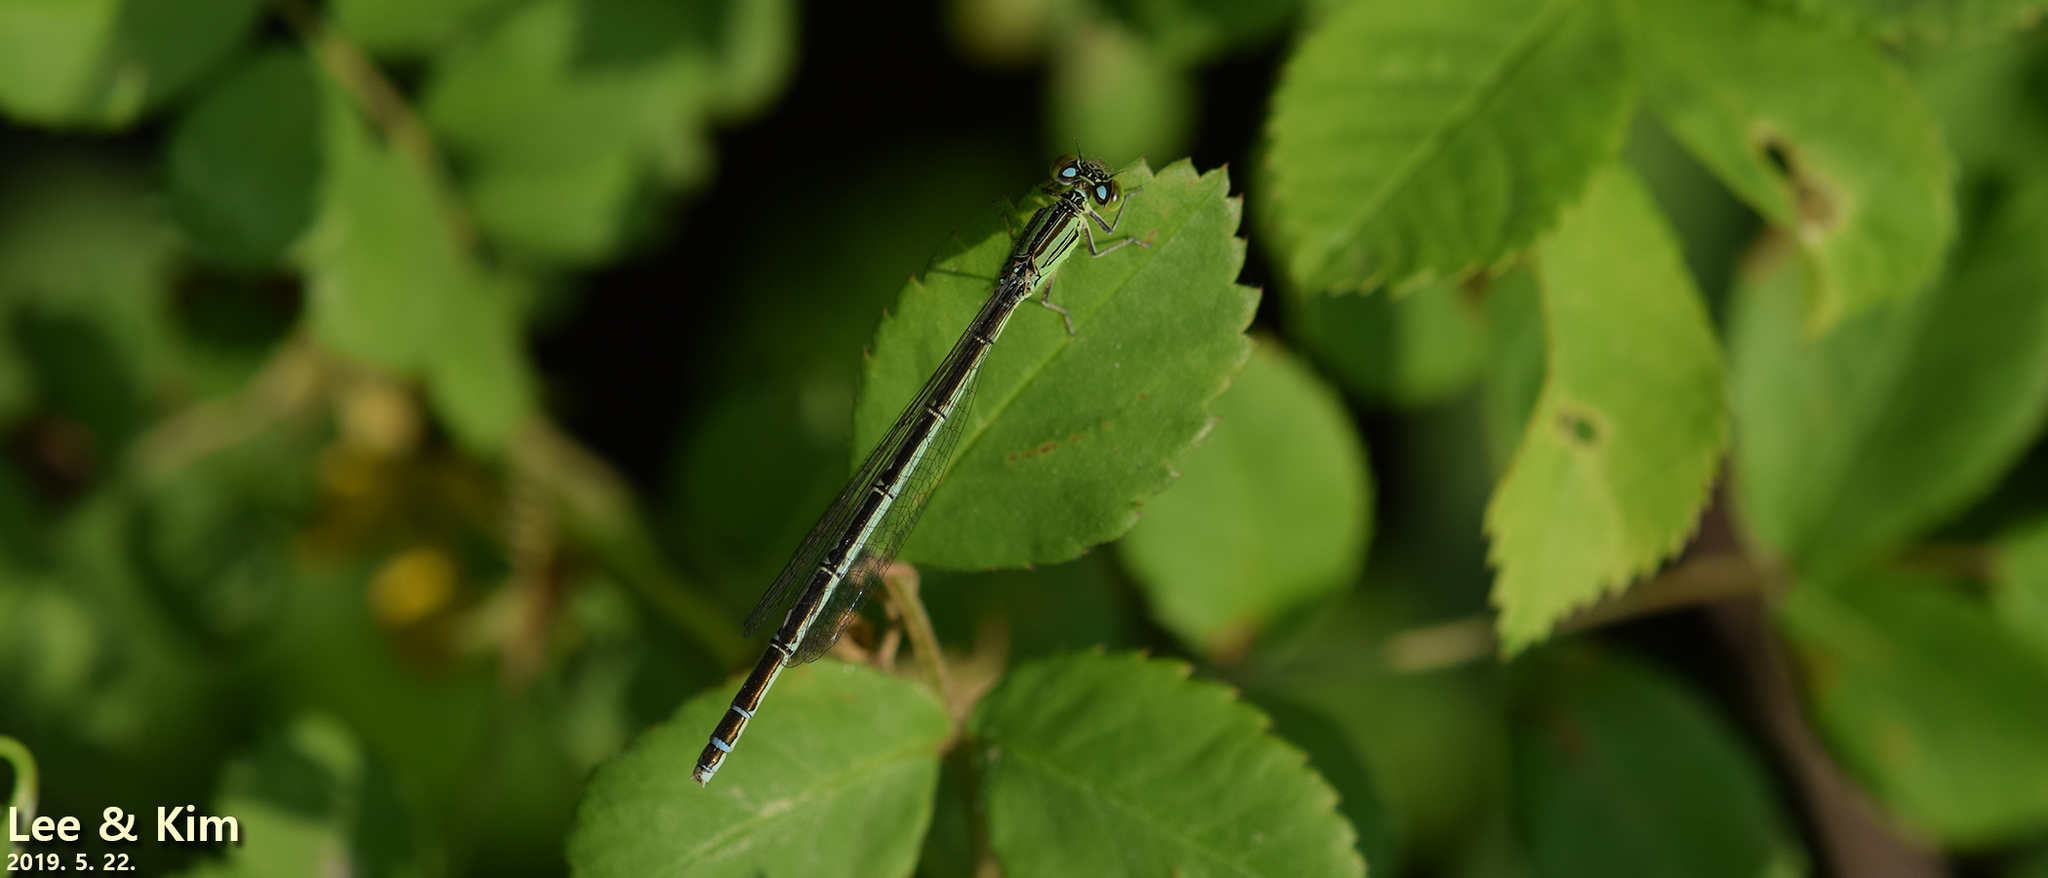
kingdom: Animalia
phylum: Arthropoda
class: Insecta
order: Odonata
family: Coenagrionidae
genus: Paracercion
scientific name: Paracercion v-nigrum
